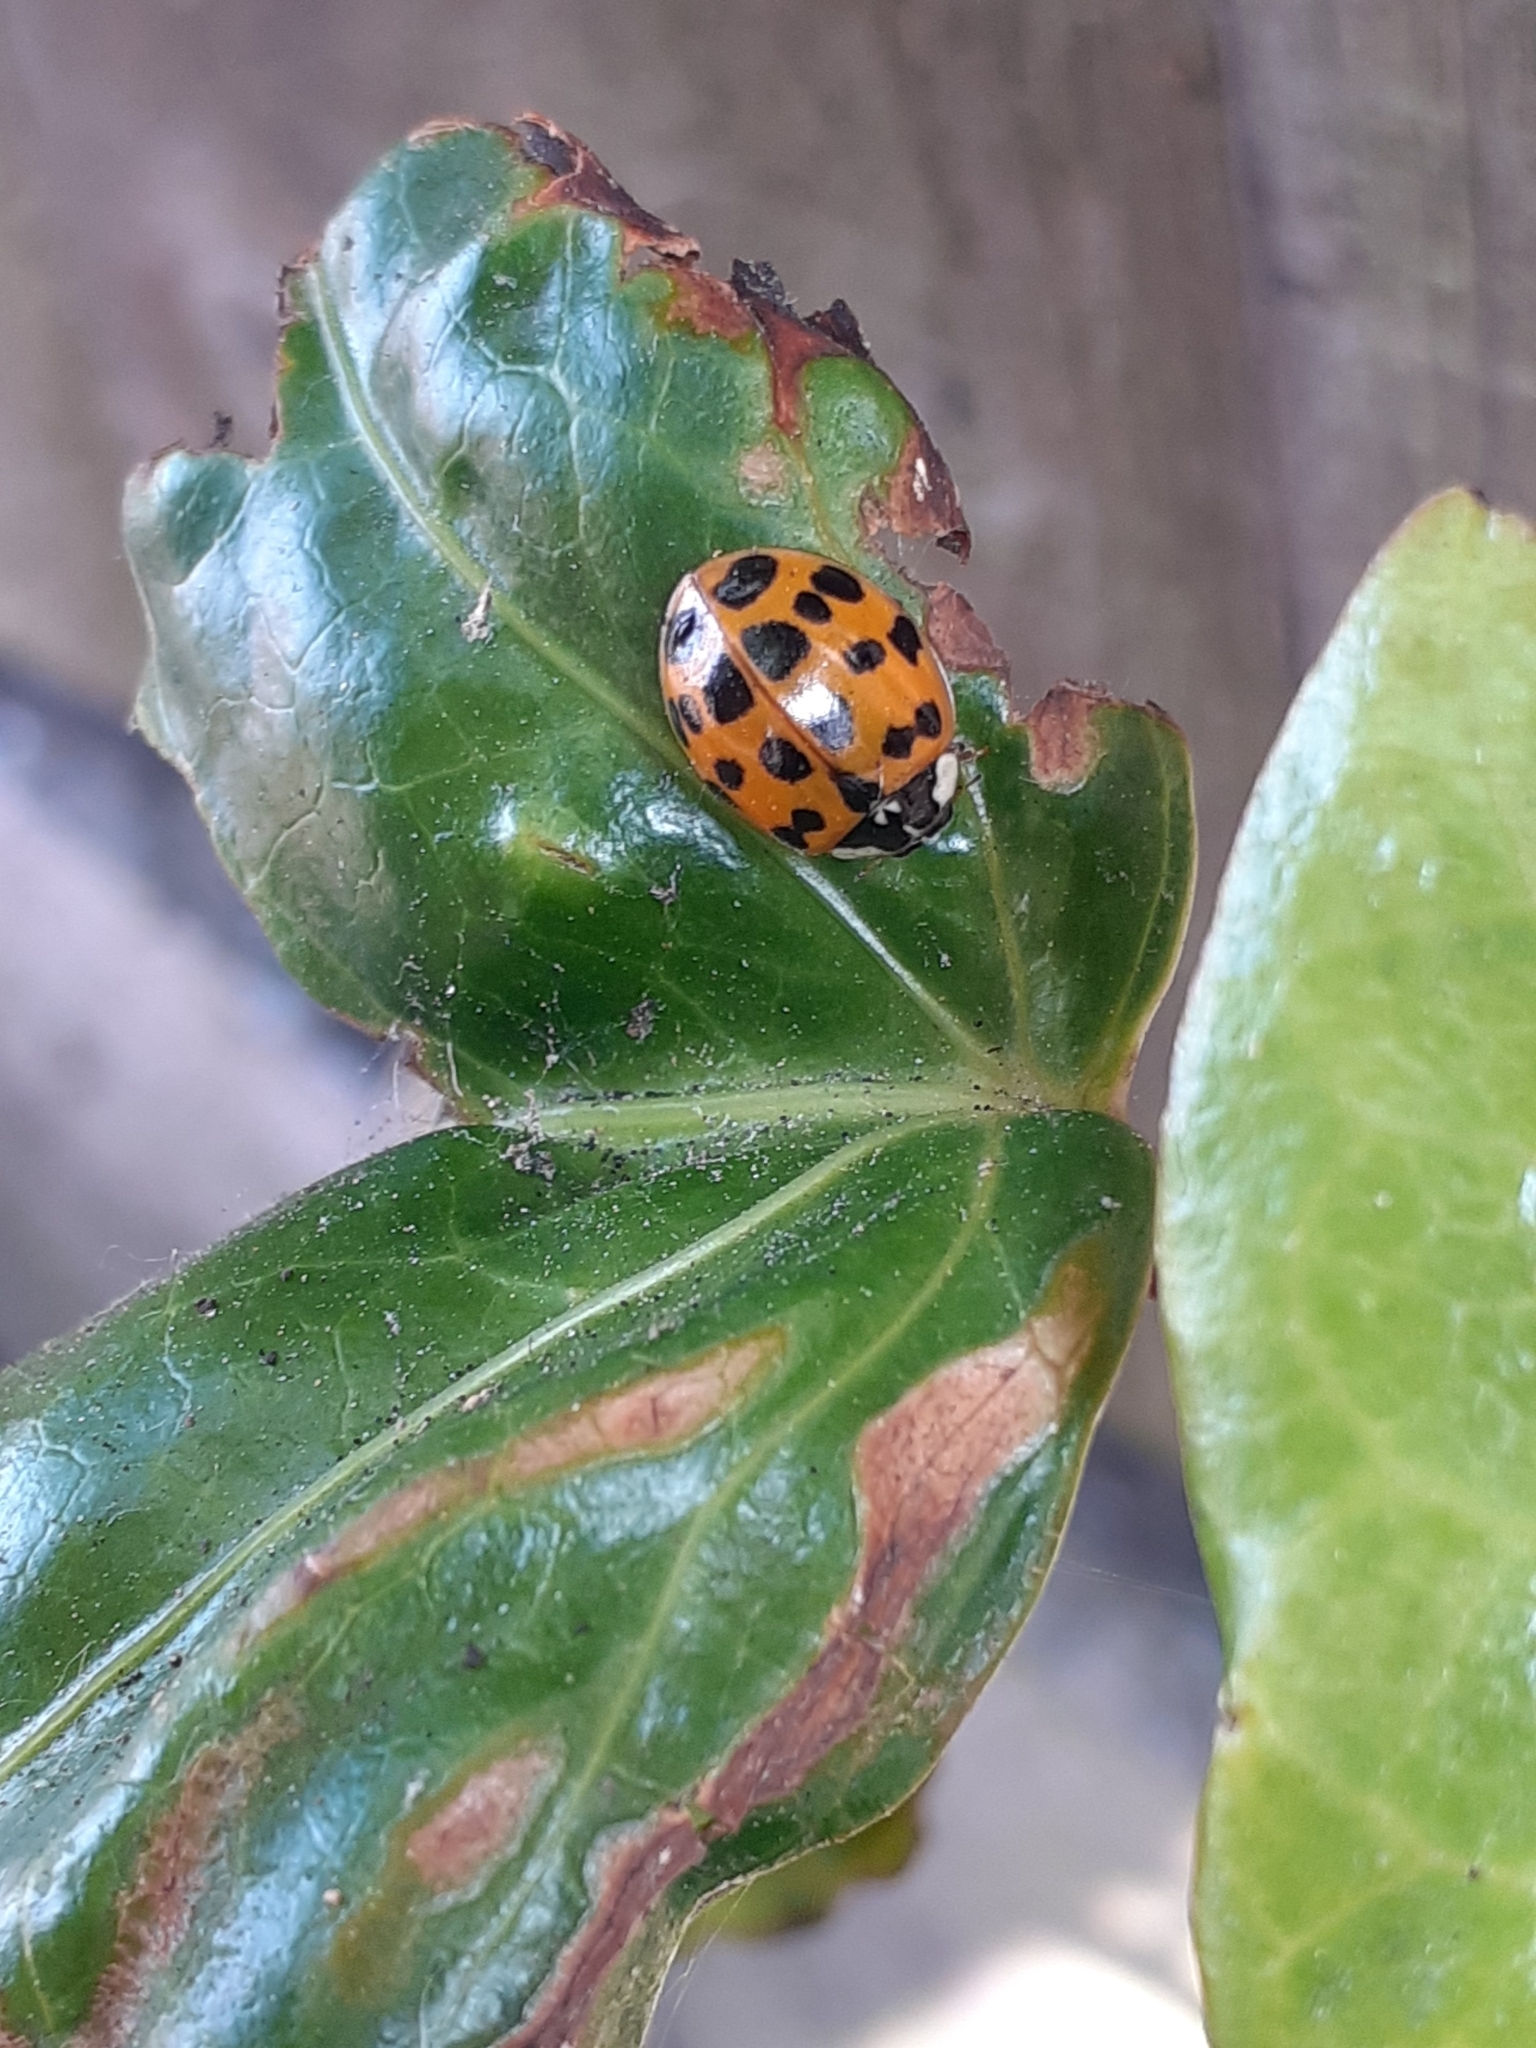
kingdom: Animalia
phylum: Arthropoda
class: Insecta
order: Coleoptera
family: Coccinellidae
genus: Harmonia
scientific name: Harmonia axyridis
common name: Harlequin ladybird
